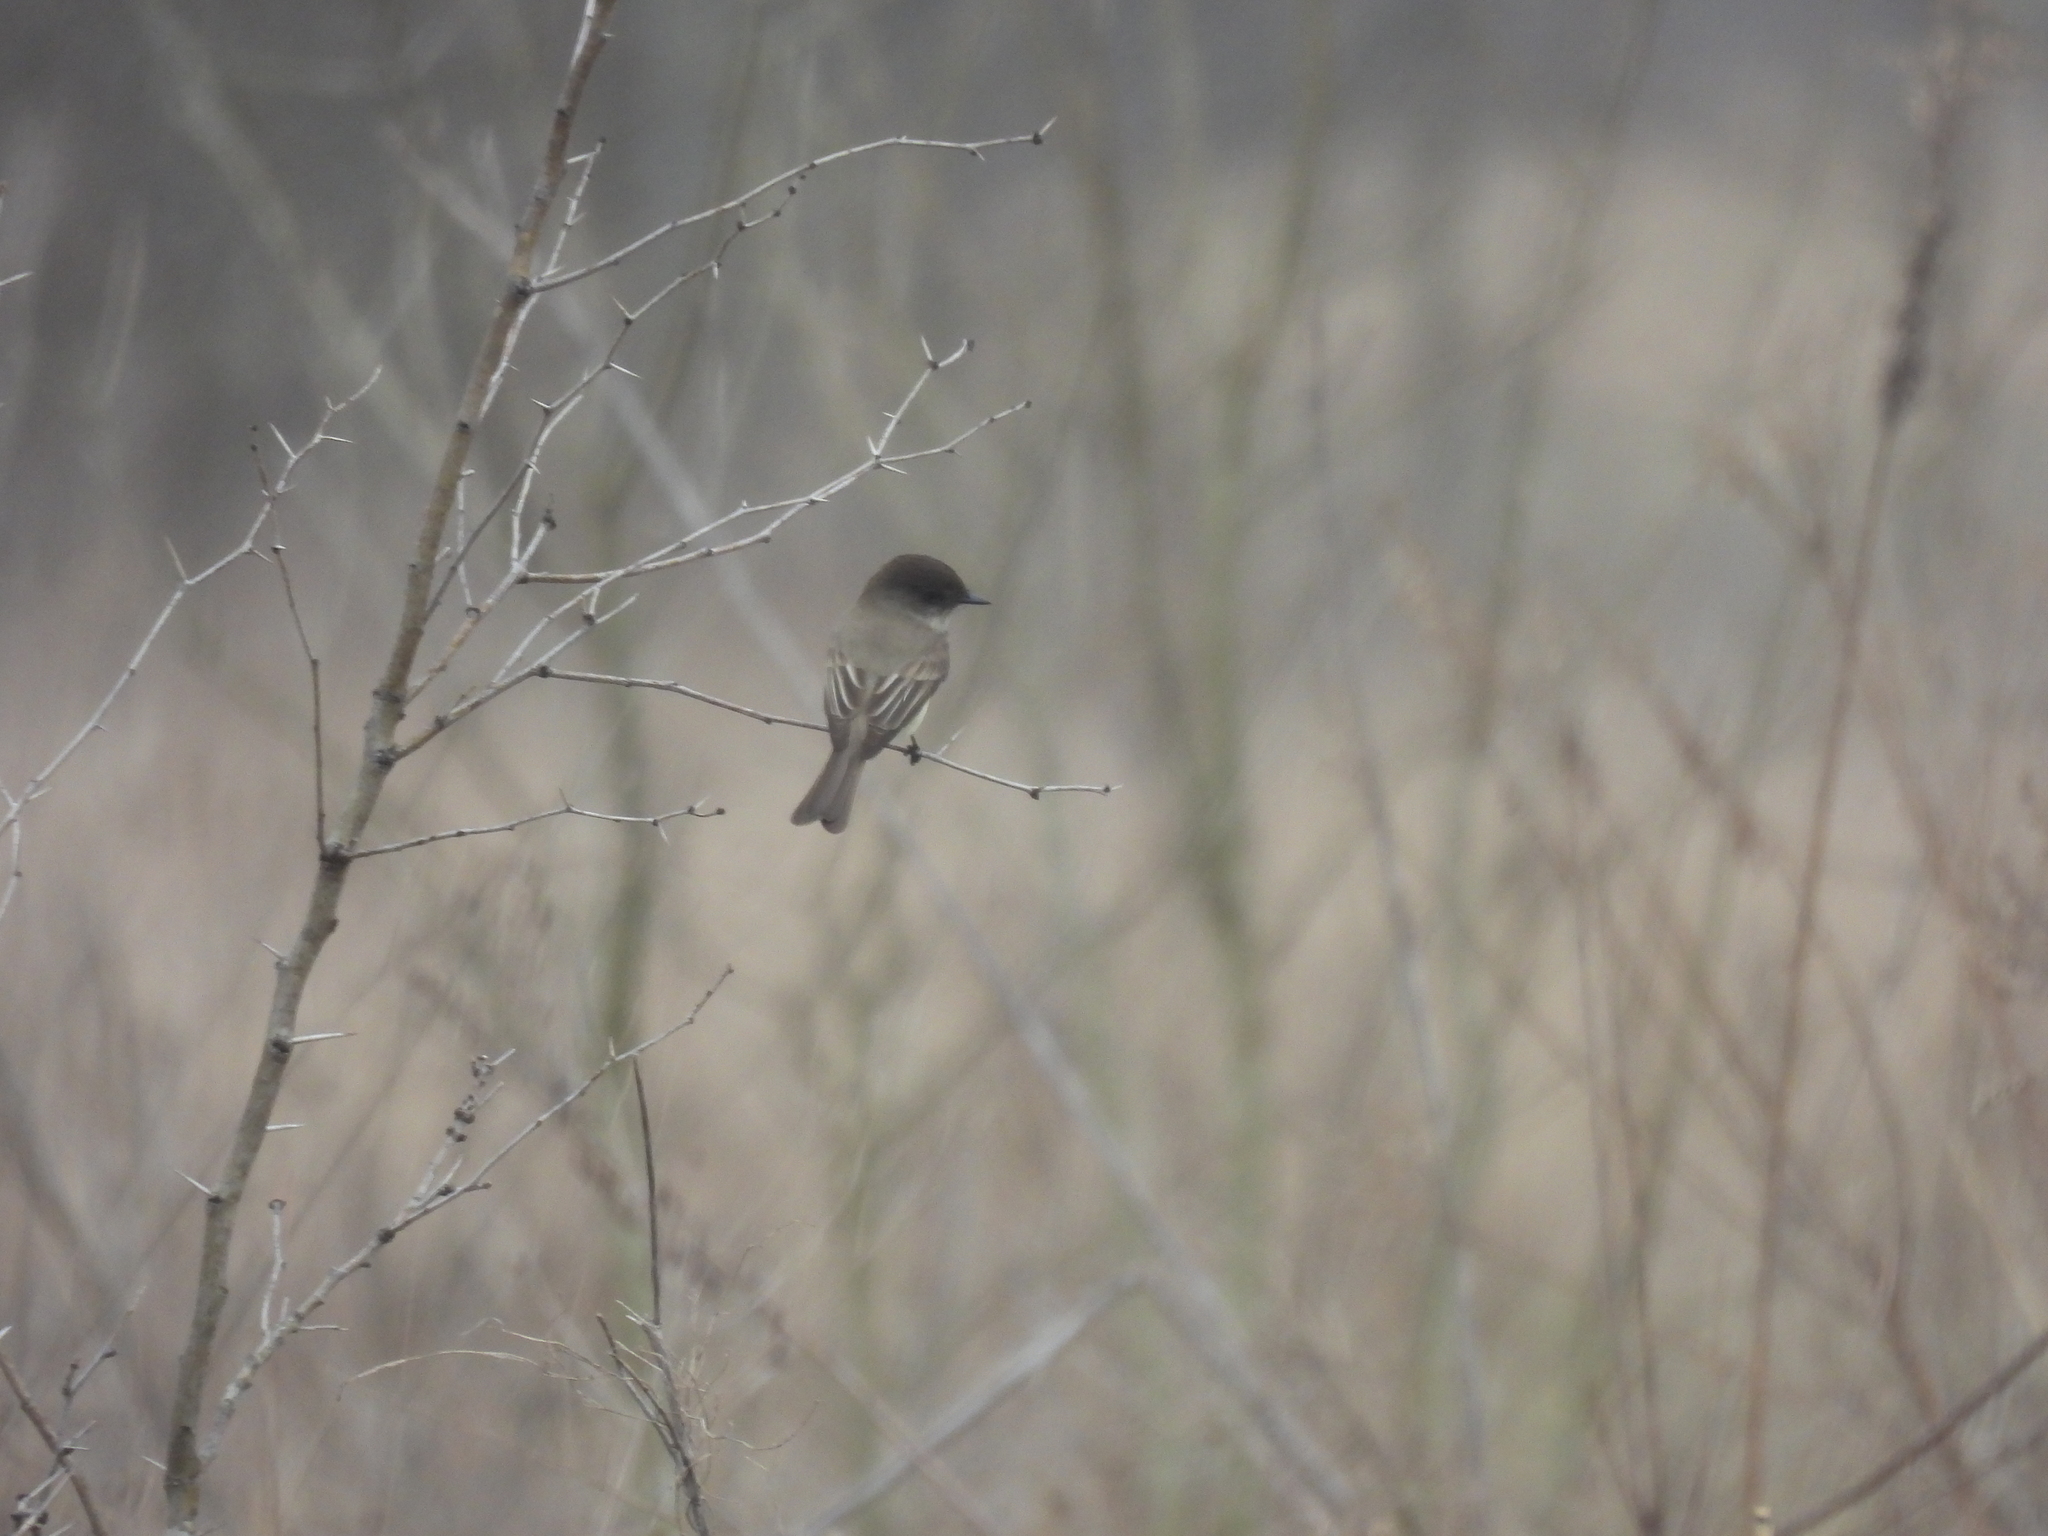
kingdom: Animalia
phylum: Chordata
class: Aves
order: Passeriformes
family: Tyrannidae
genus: Sayornis
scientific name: Sayornis phoebe
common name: Eastern phoebe
